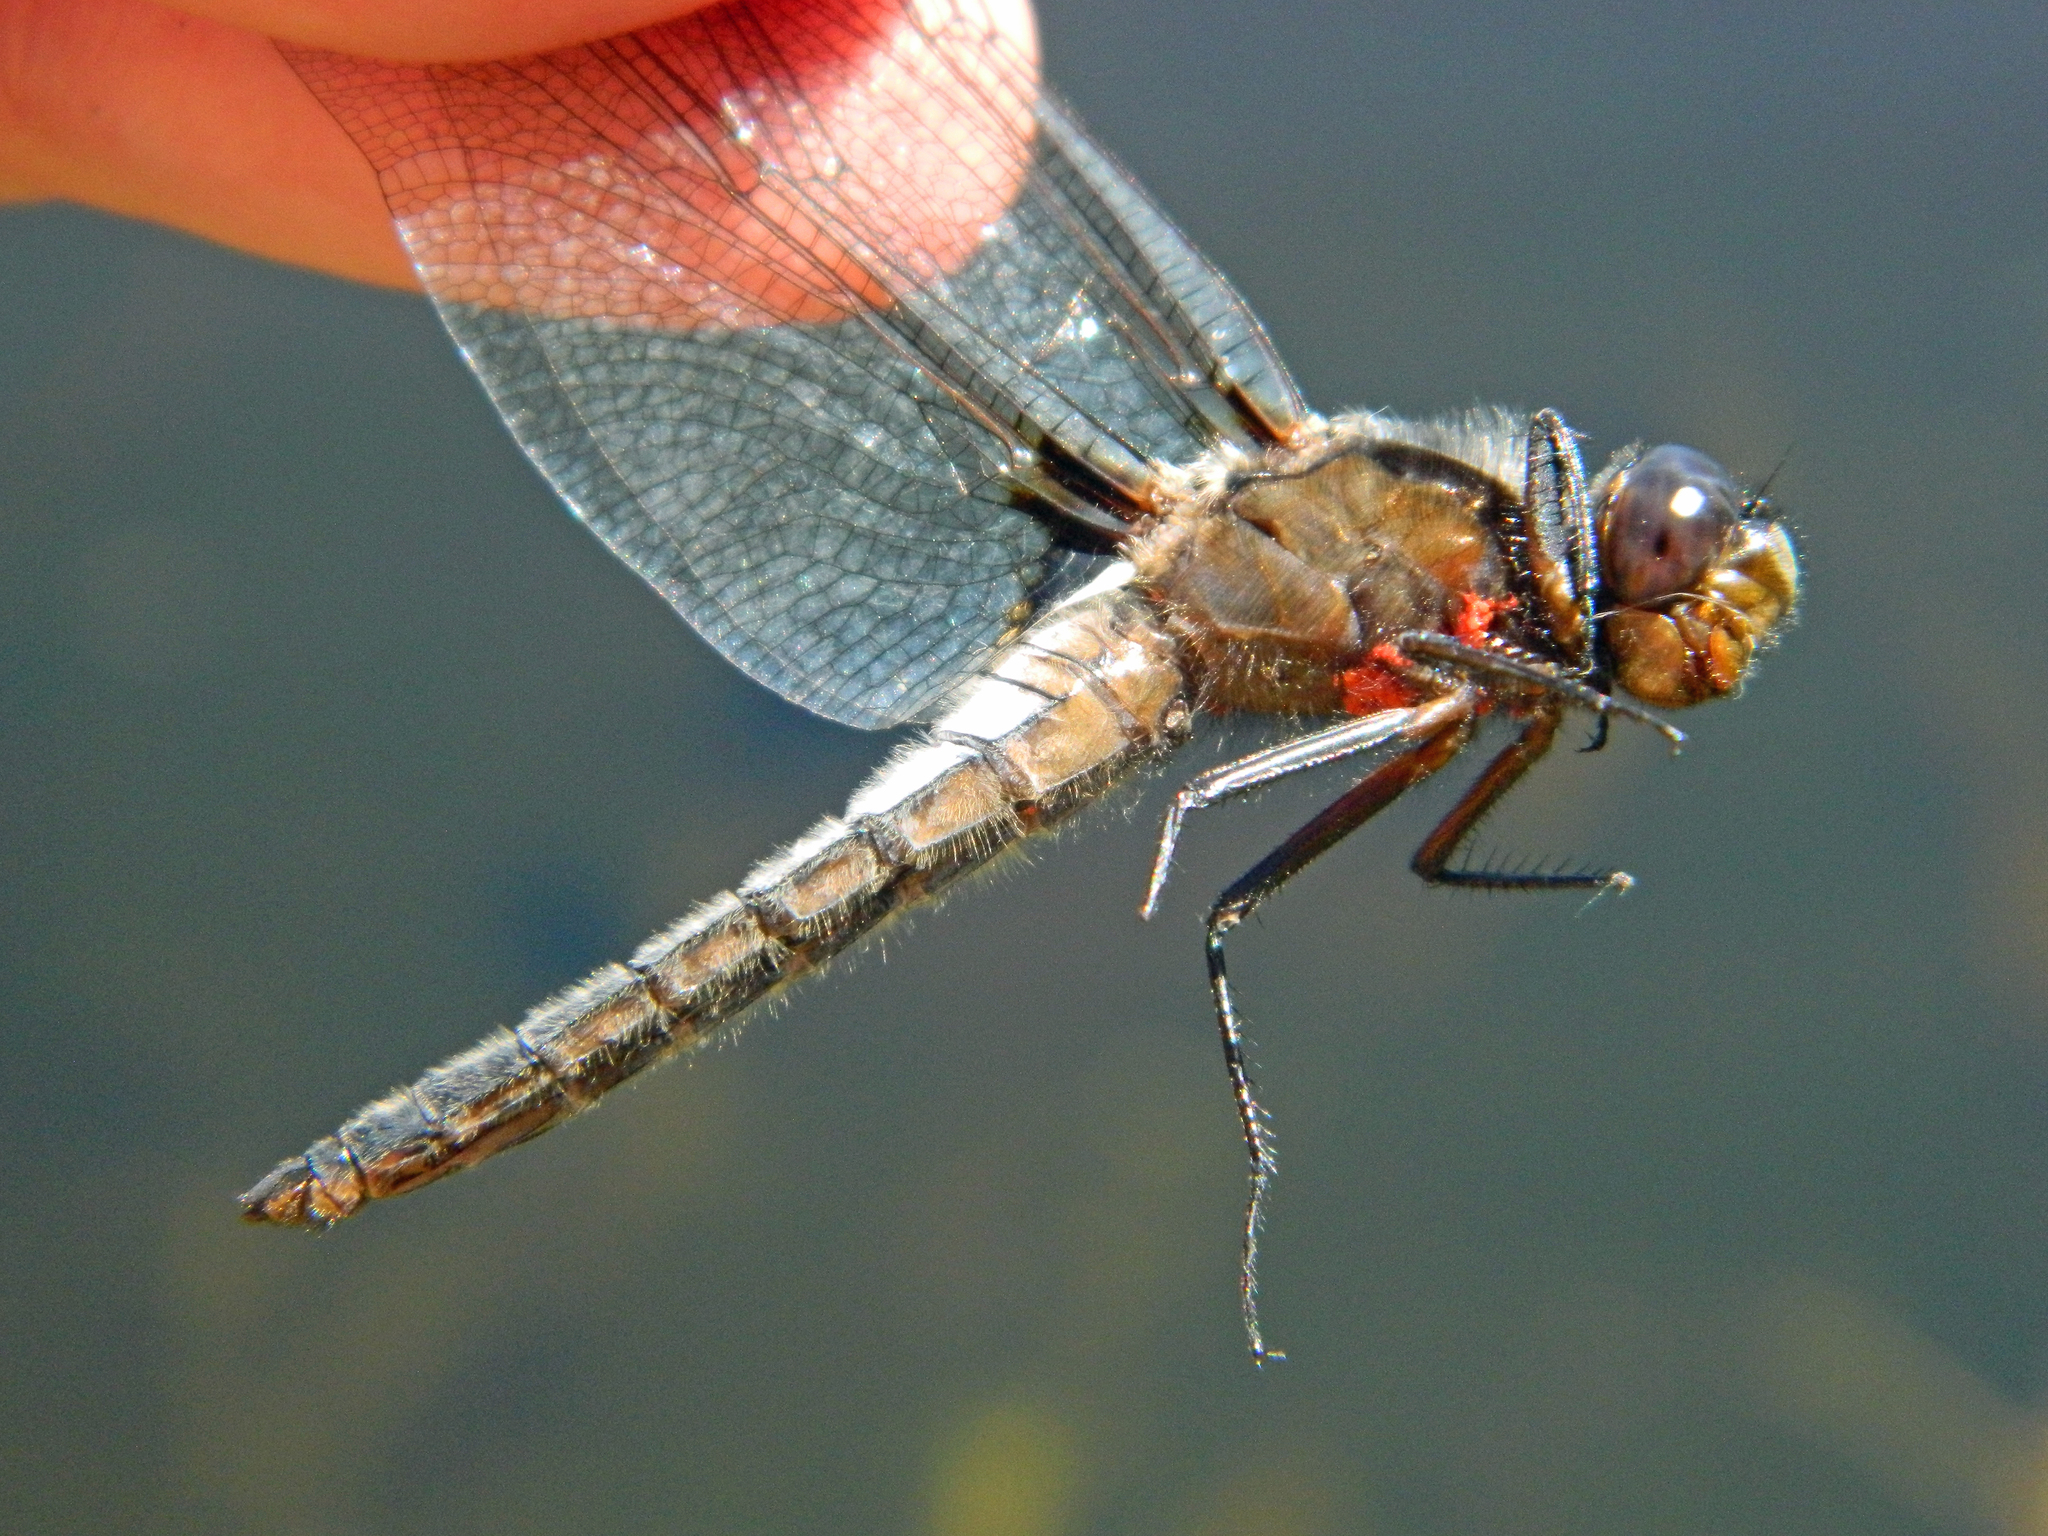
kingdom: Animalia
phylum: Arthropoda
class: Insecta
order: Odonata
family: Libellulidae
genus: Ladona
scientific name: Ladona julia
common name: Chalk-fronted corporal
